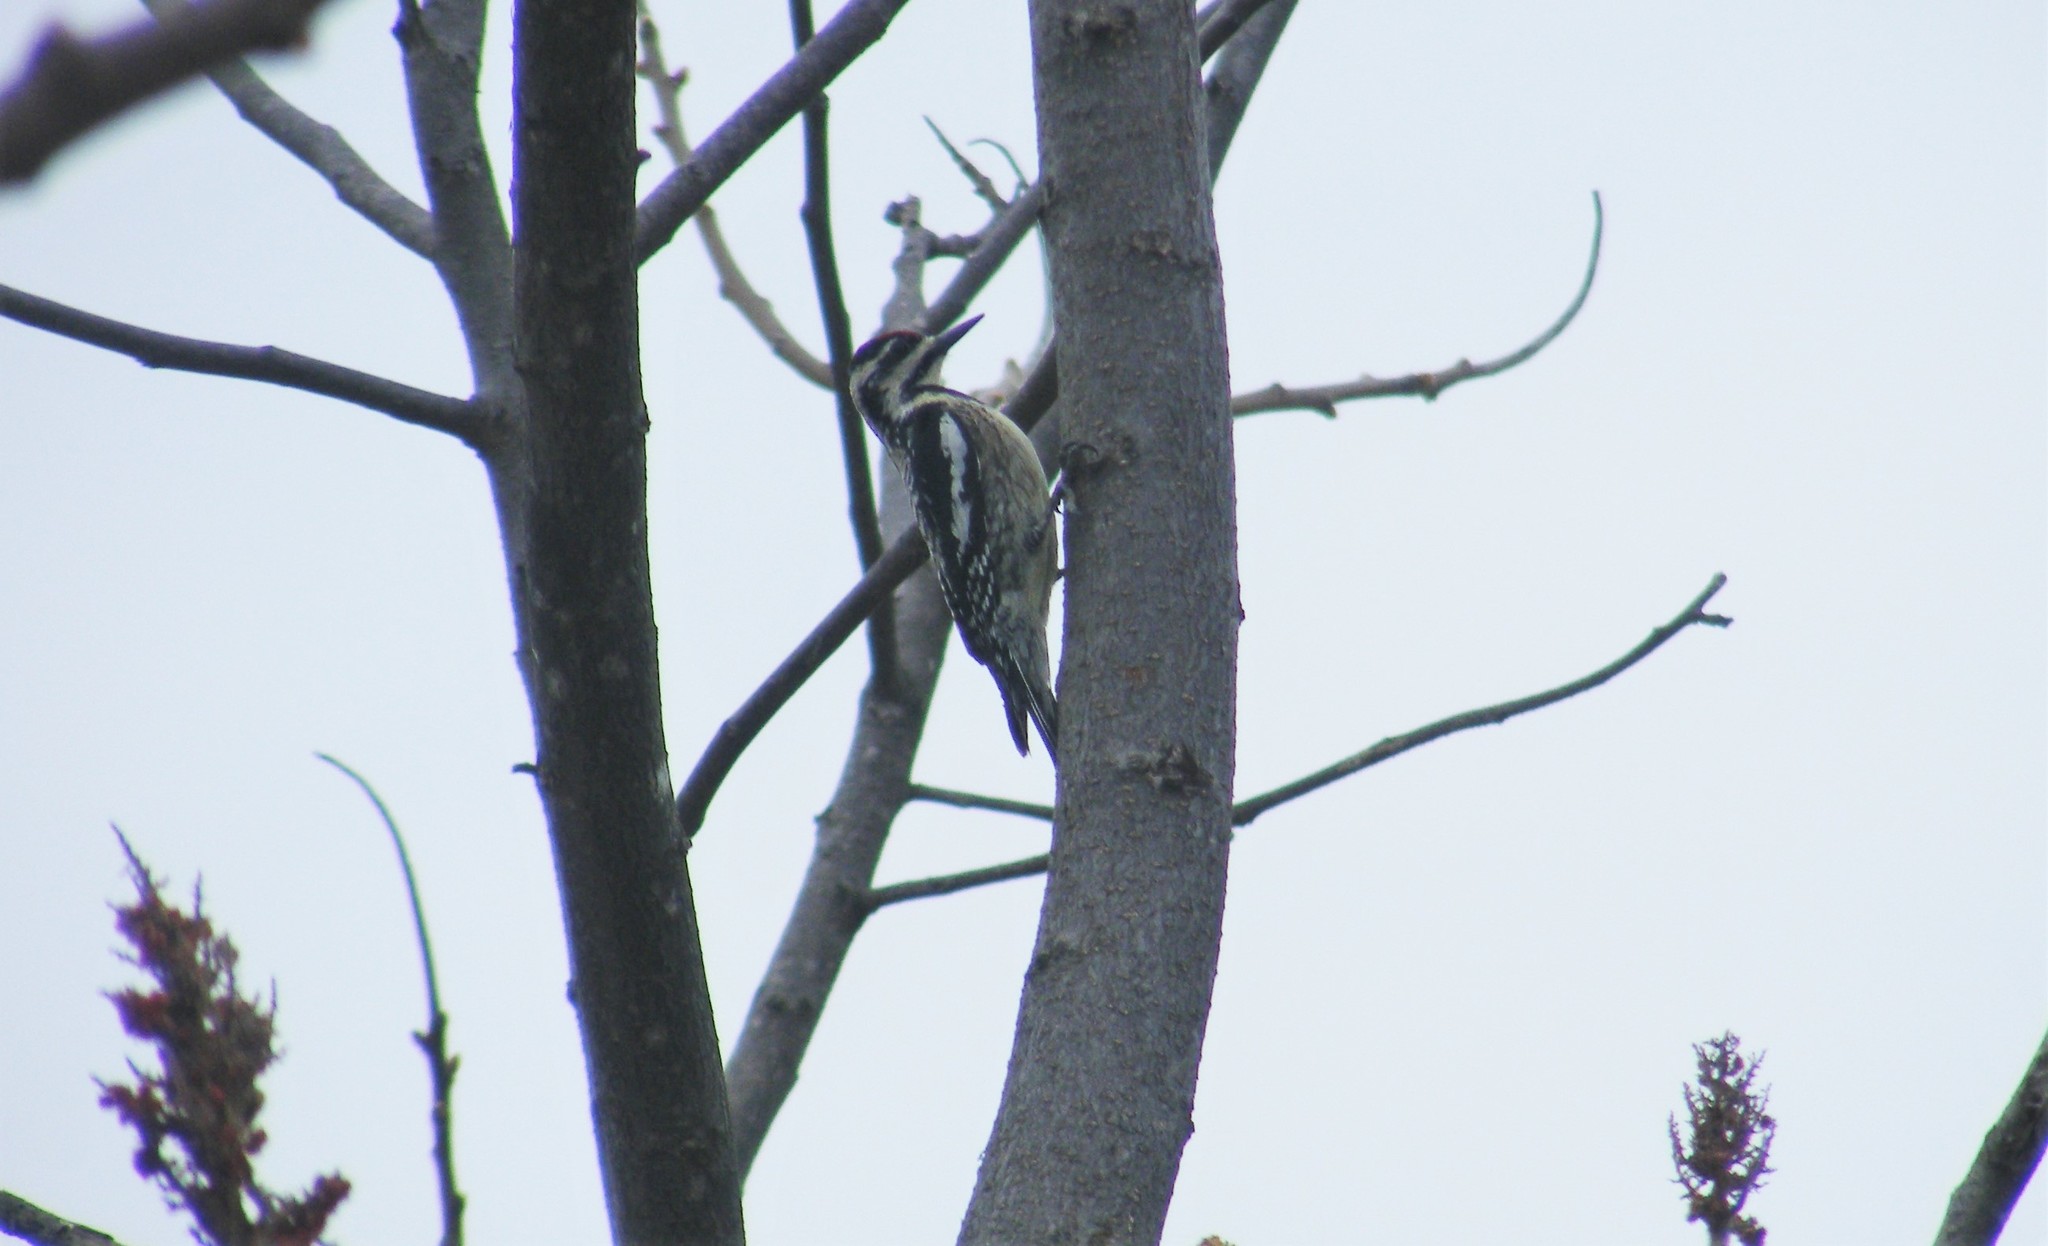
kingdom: Animalia
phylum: Chordata
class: Aves
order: Piciformes
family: Picidae
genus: Sphyrapicus
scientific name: Sphyrapicus varius
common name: Yellow-bellied sapsucker
